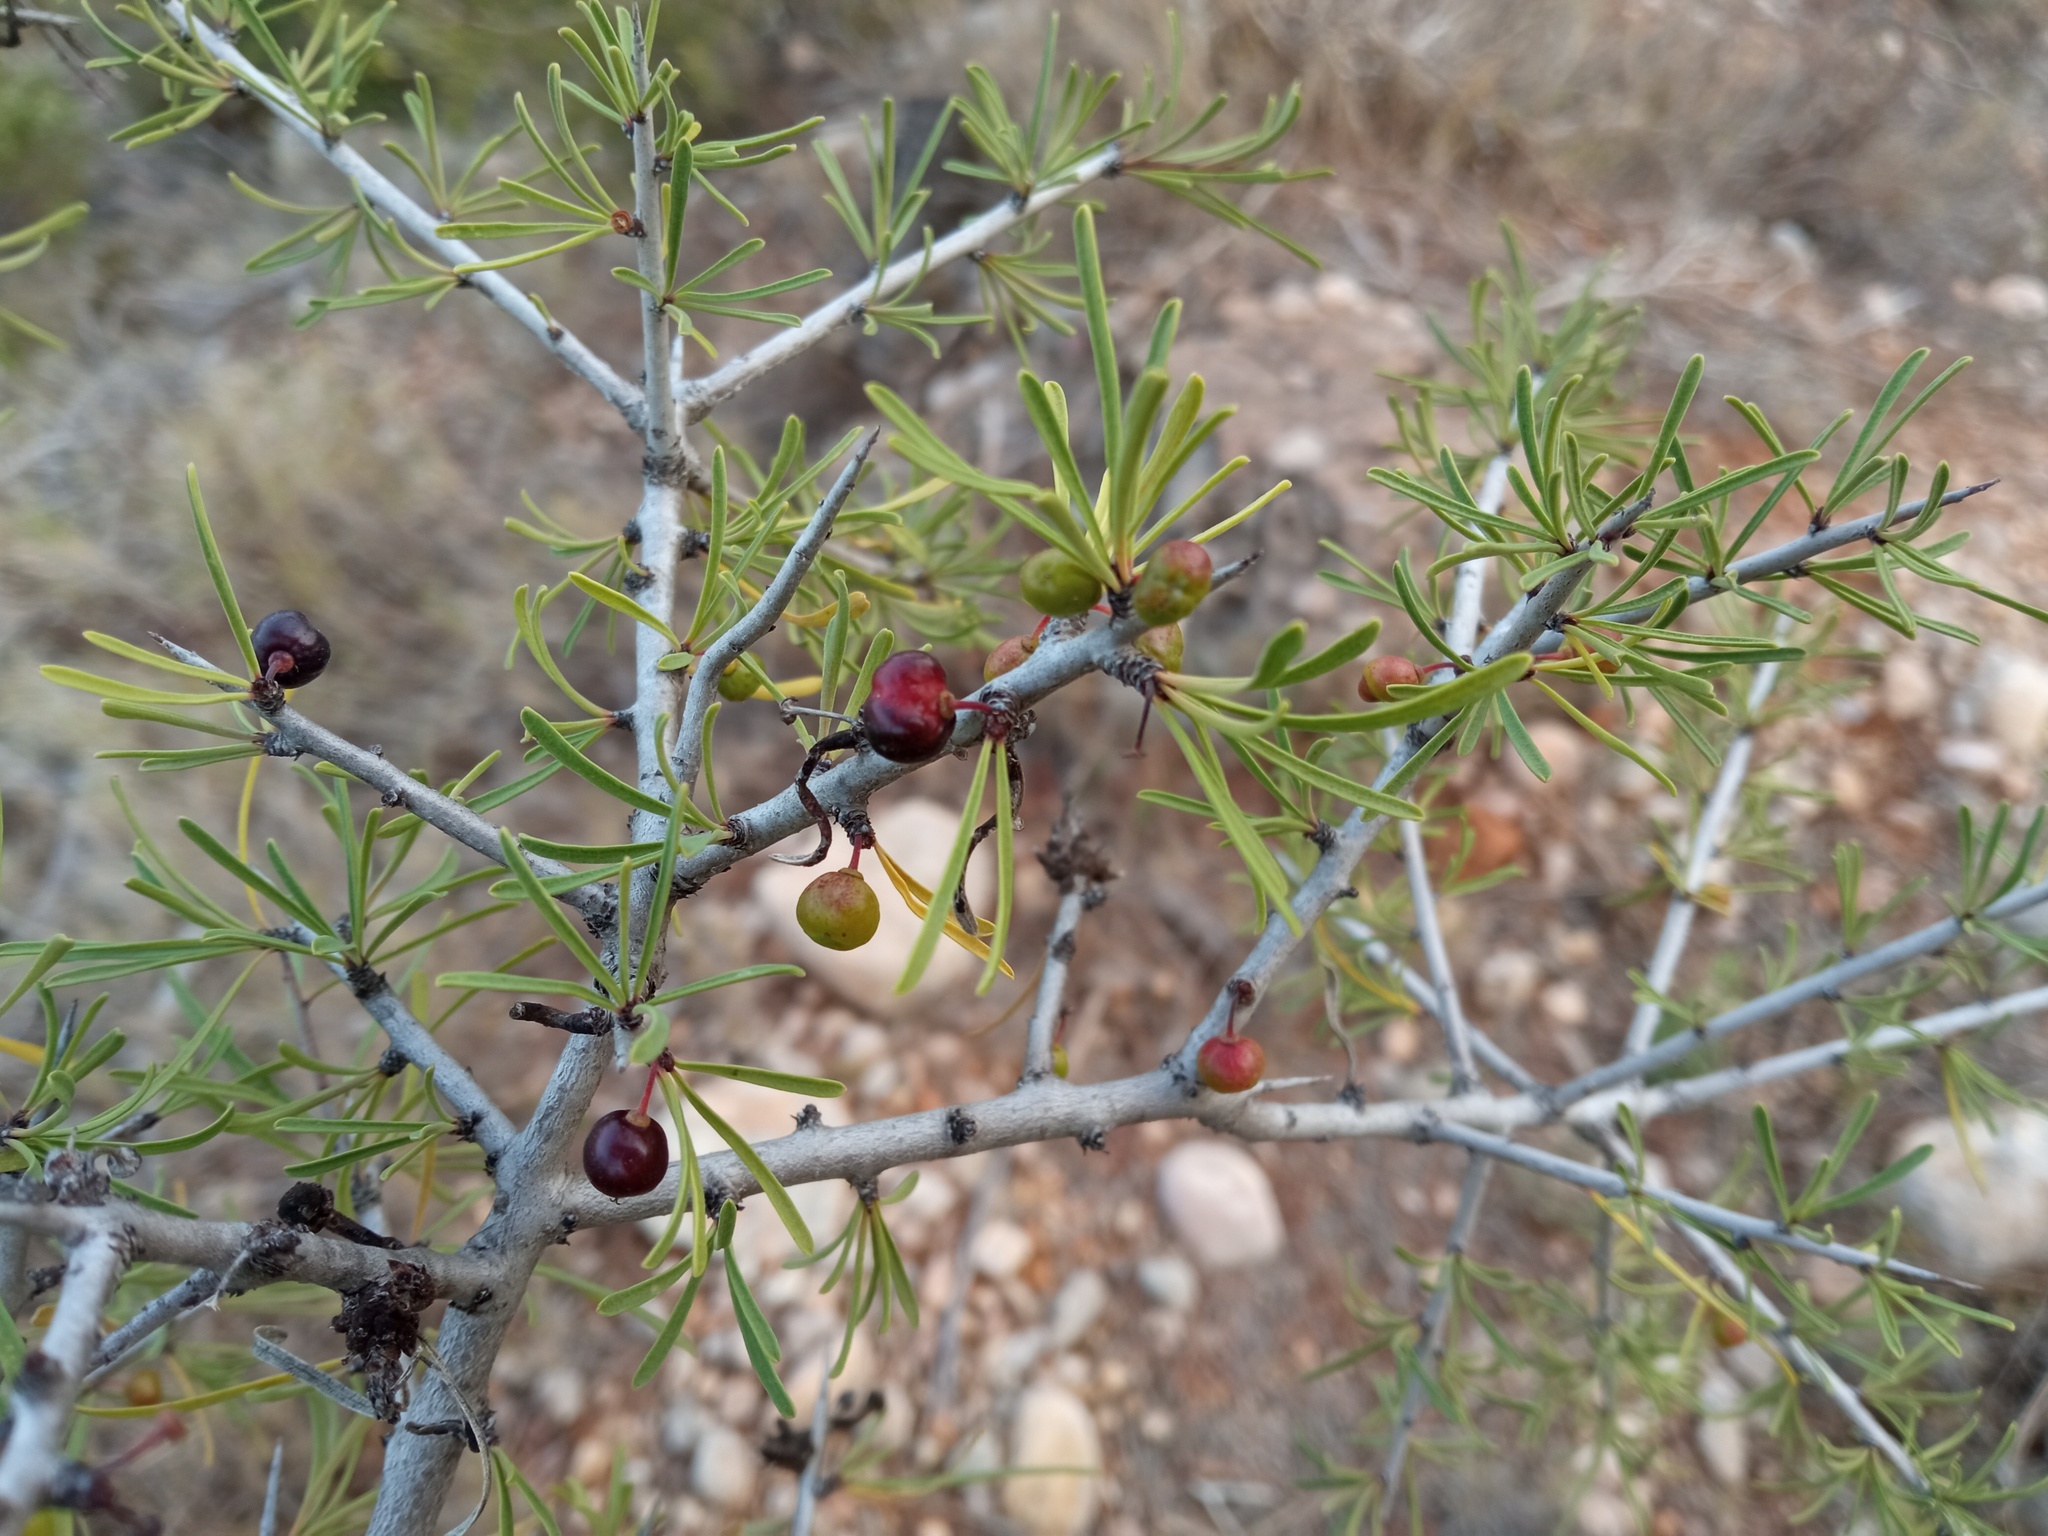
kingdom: Plantae
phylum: Tracheophyta
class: Magnoliopsida
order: Rosales
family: Rhamnaceae
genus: Rhamnus
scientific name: Rhamnus lycioides
